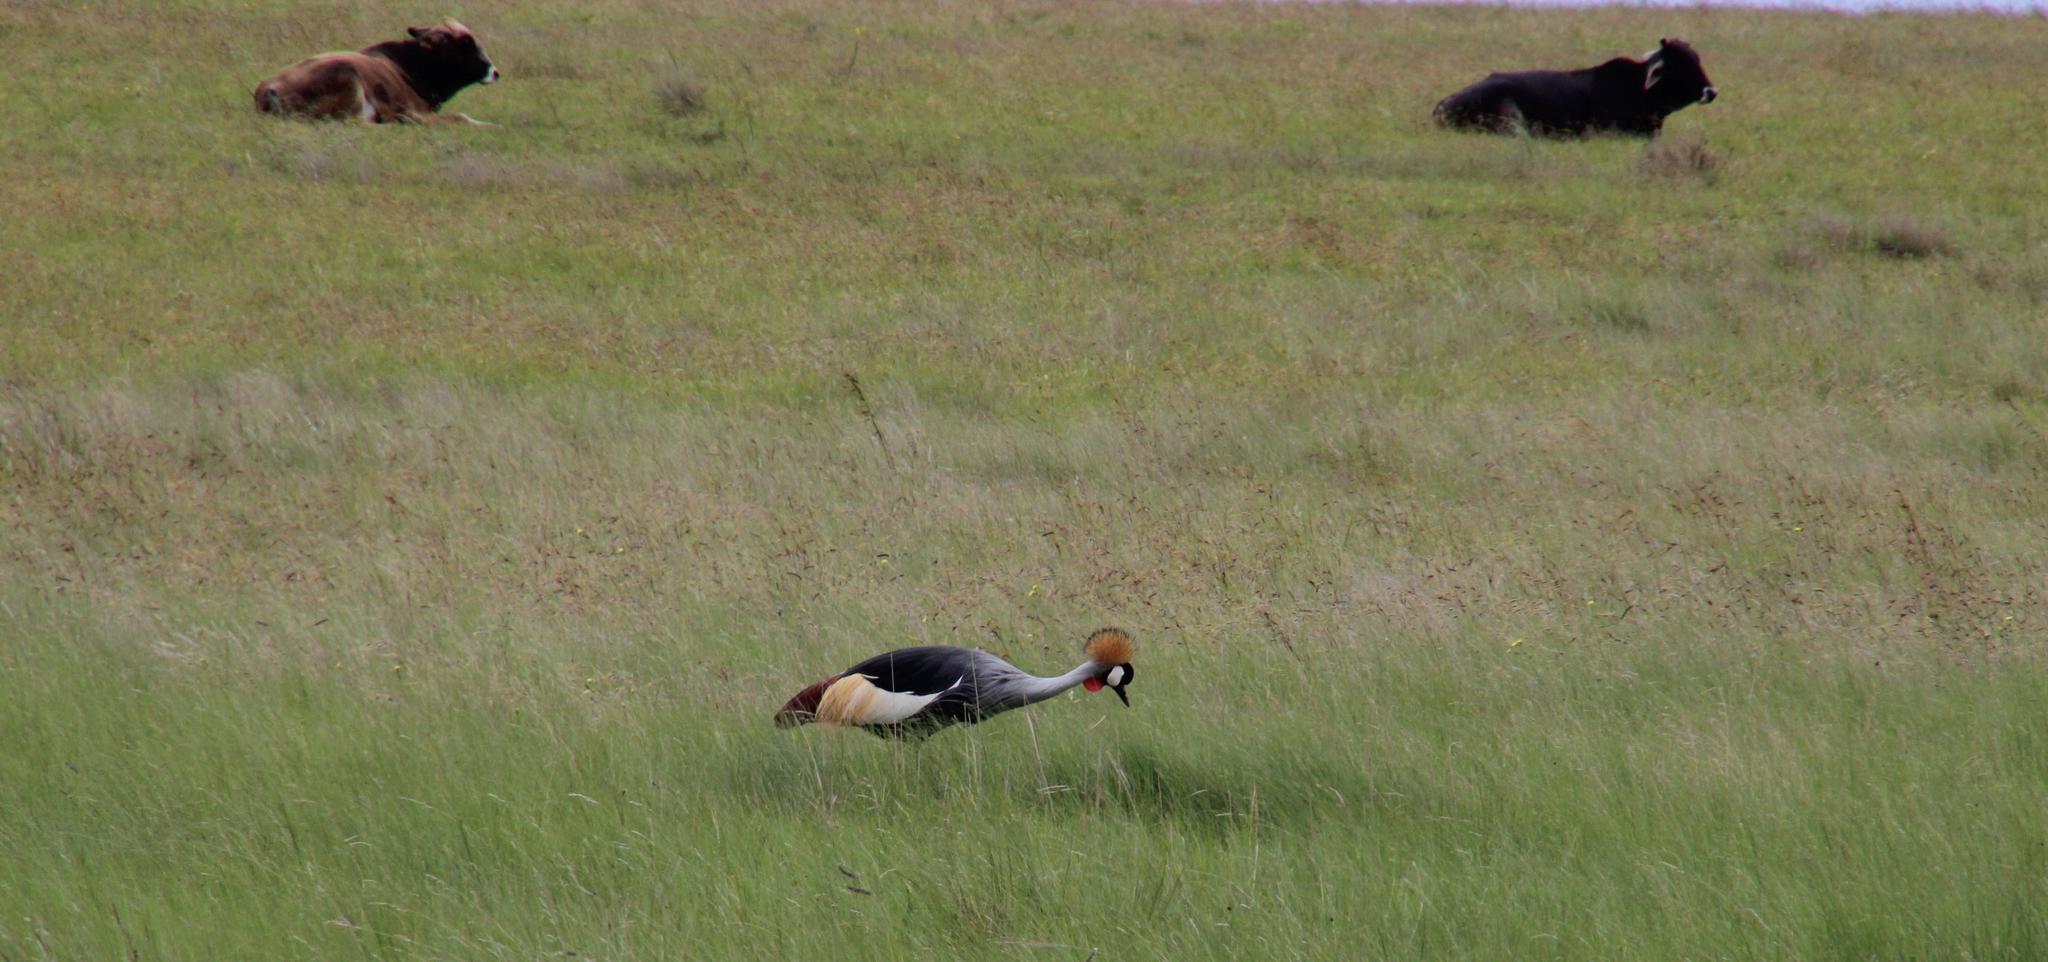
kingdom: Animalia
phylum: Chordata
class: Aves
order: Gruiformes
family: Gruidae
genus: Balearica
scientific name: Balearica regulorum
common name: Grey crowned crane
